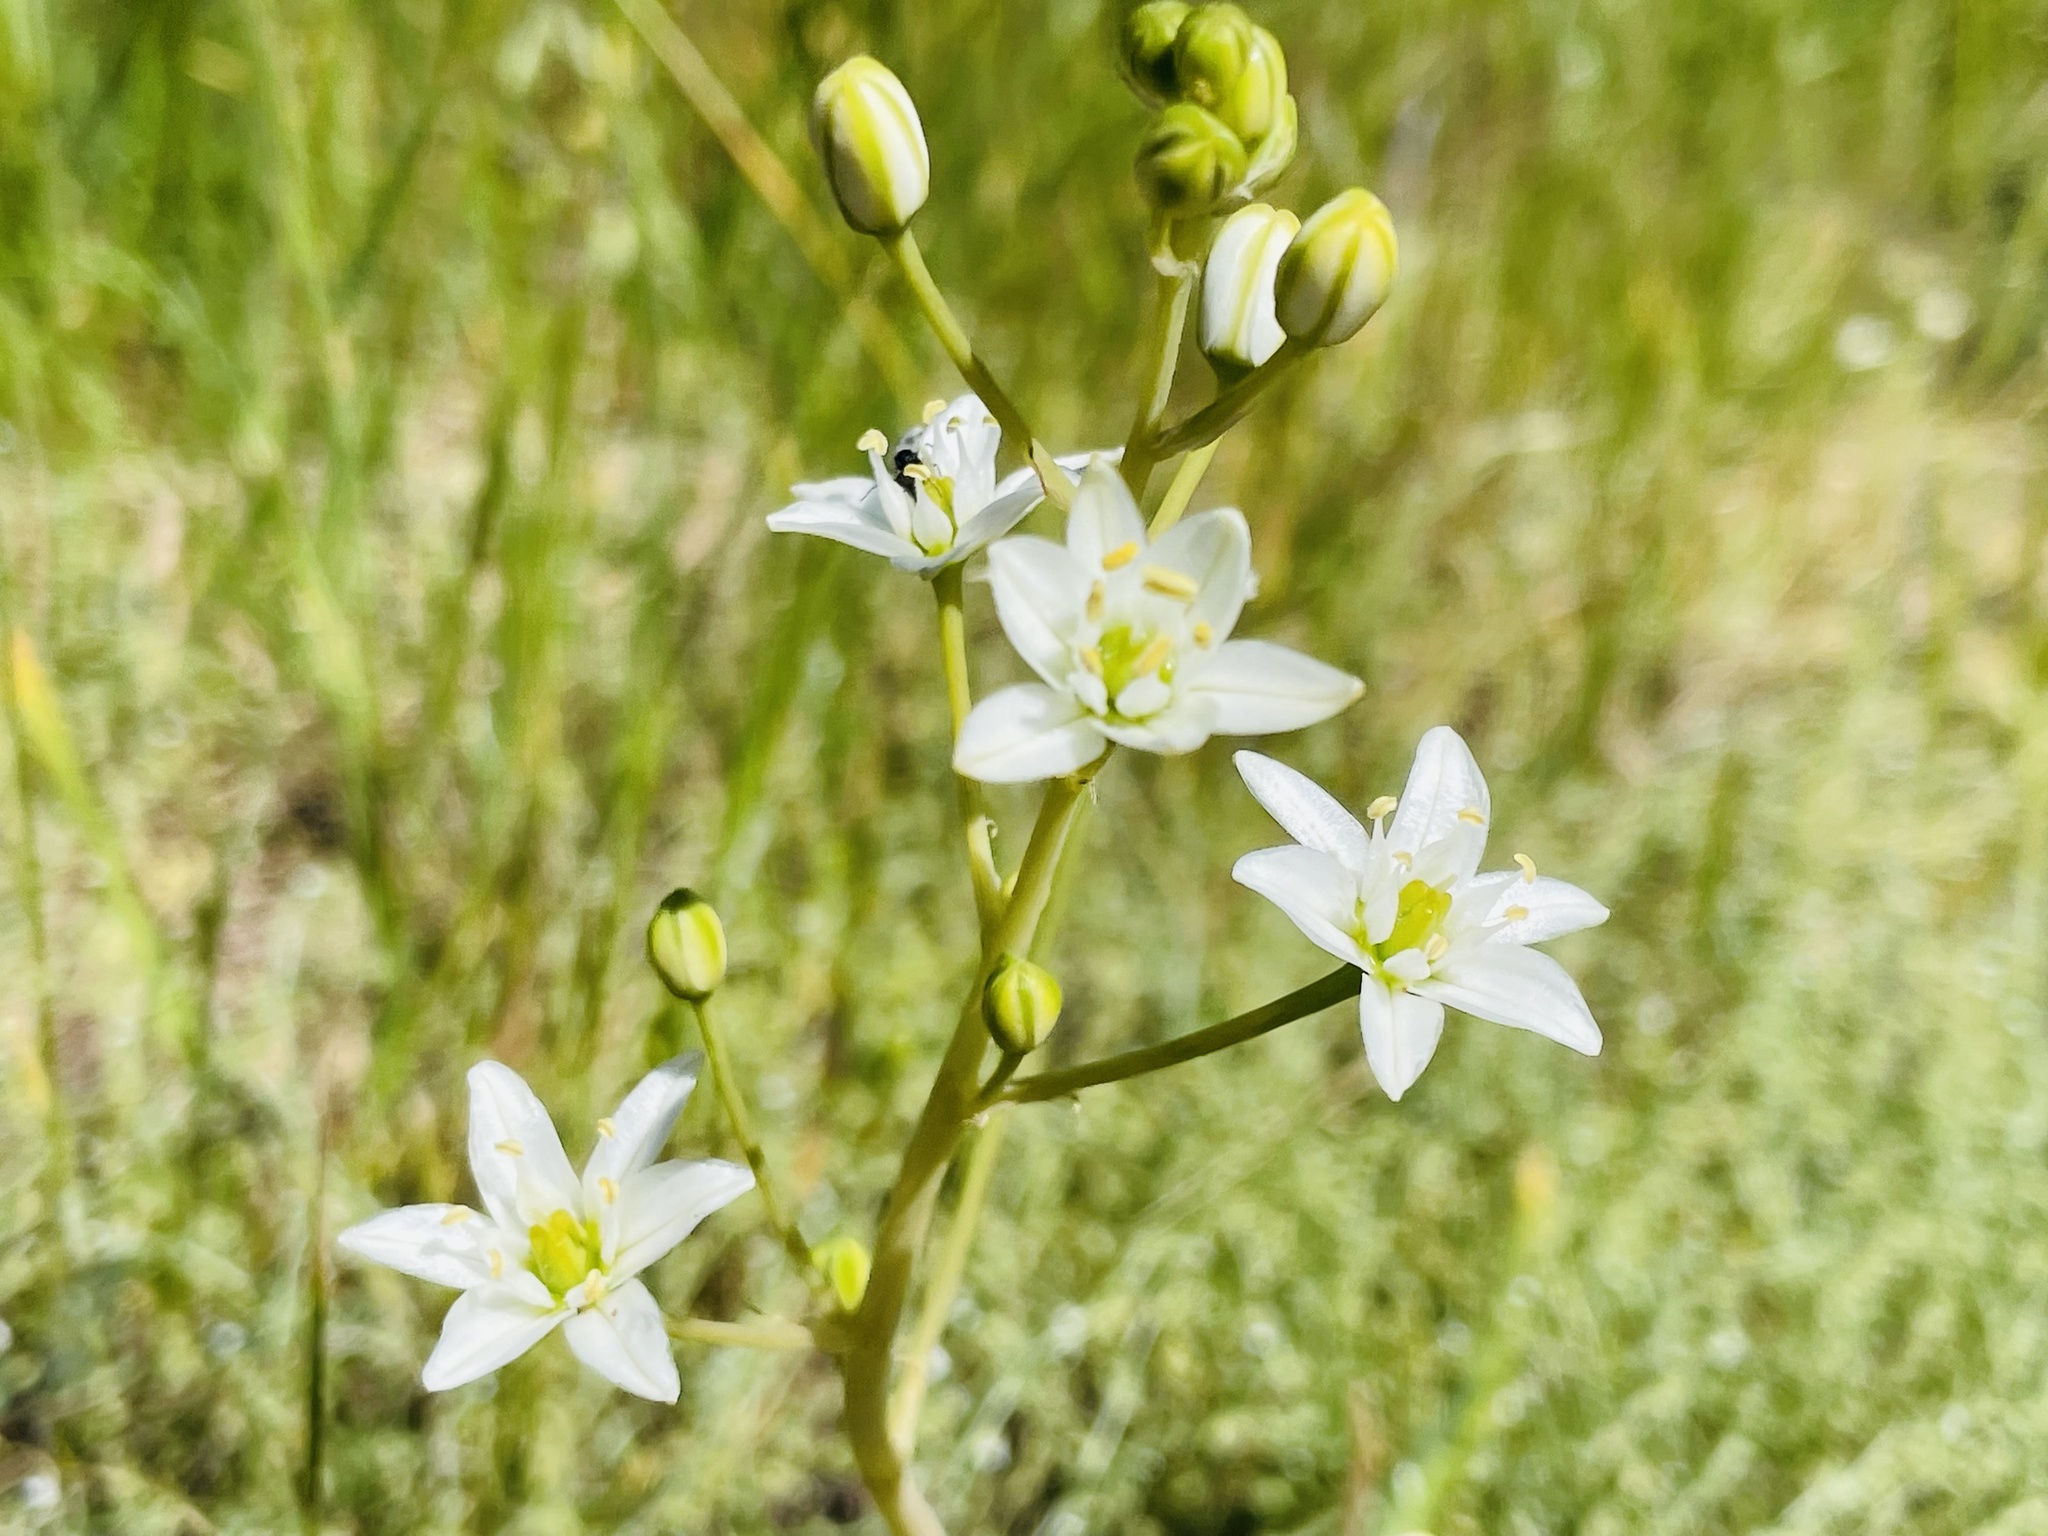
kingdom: Plantae
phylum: Tracheophyta
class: Liliopsida
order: Asparagales
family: Asparagaceae
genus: Oziroe
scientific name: Oziroe arida
